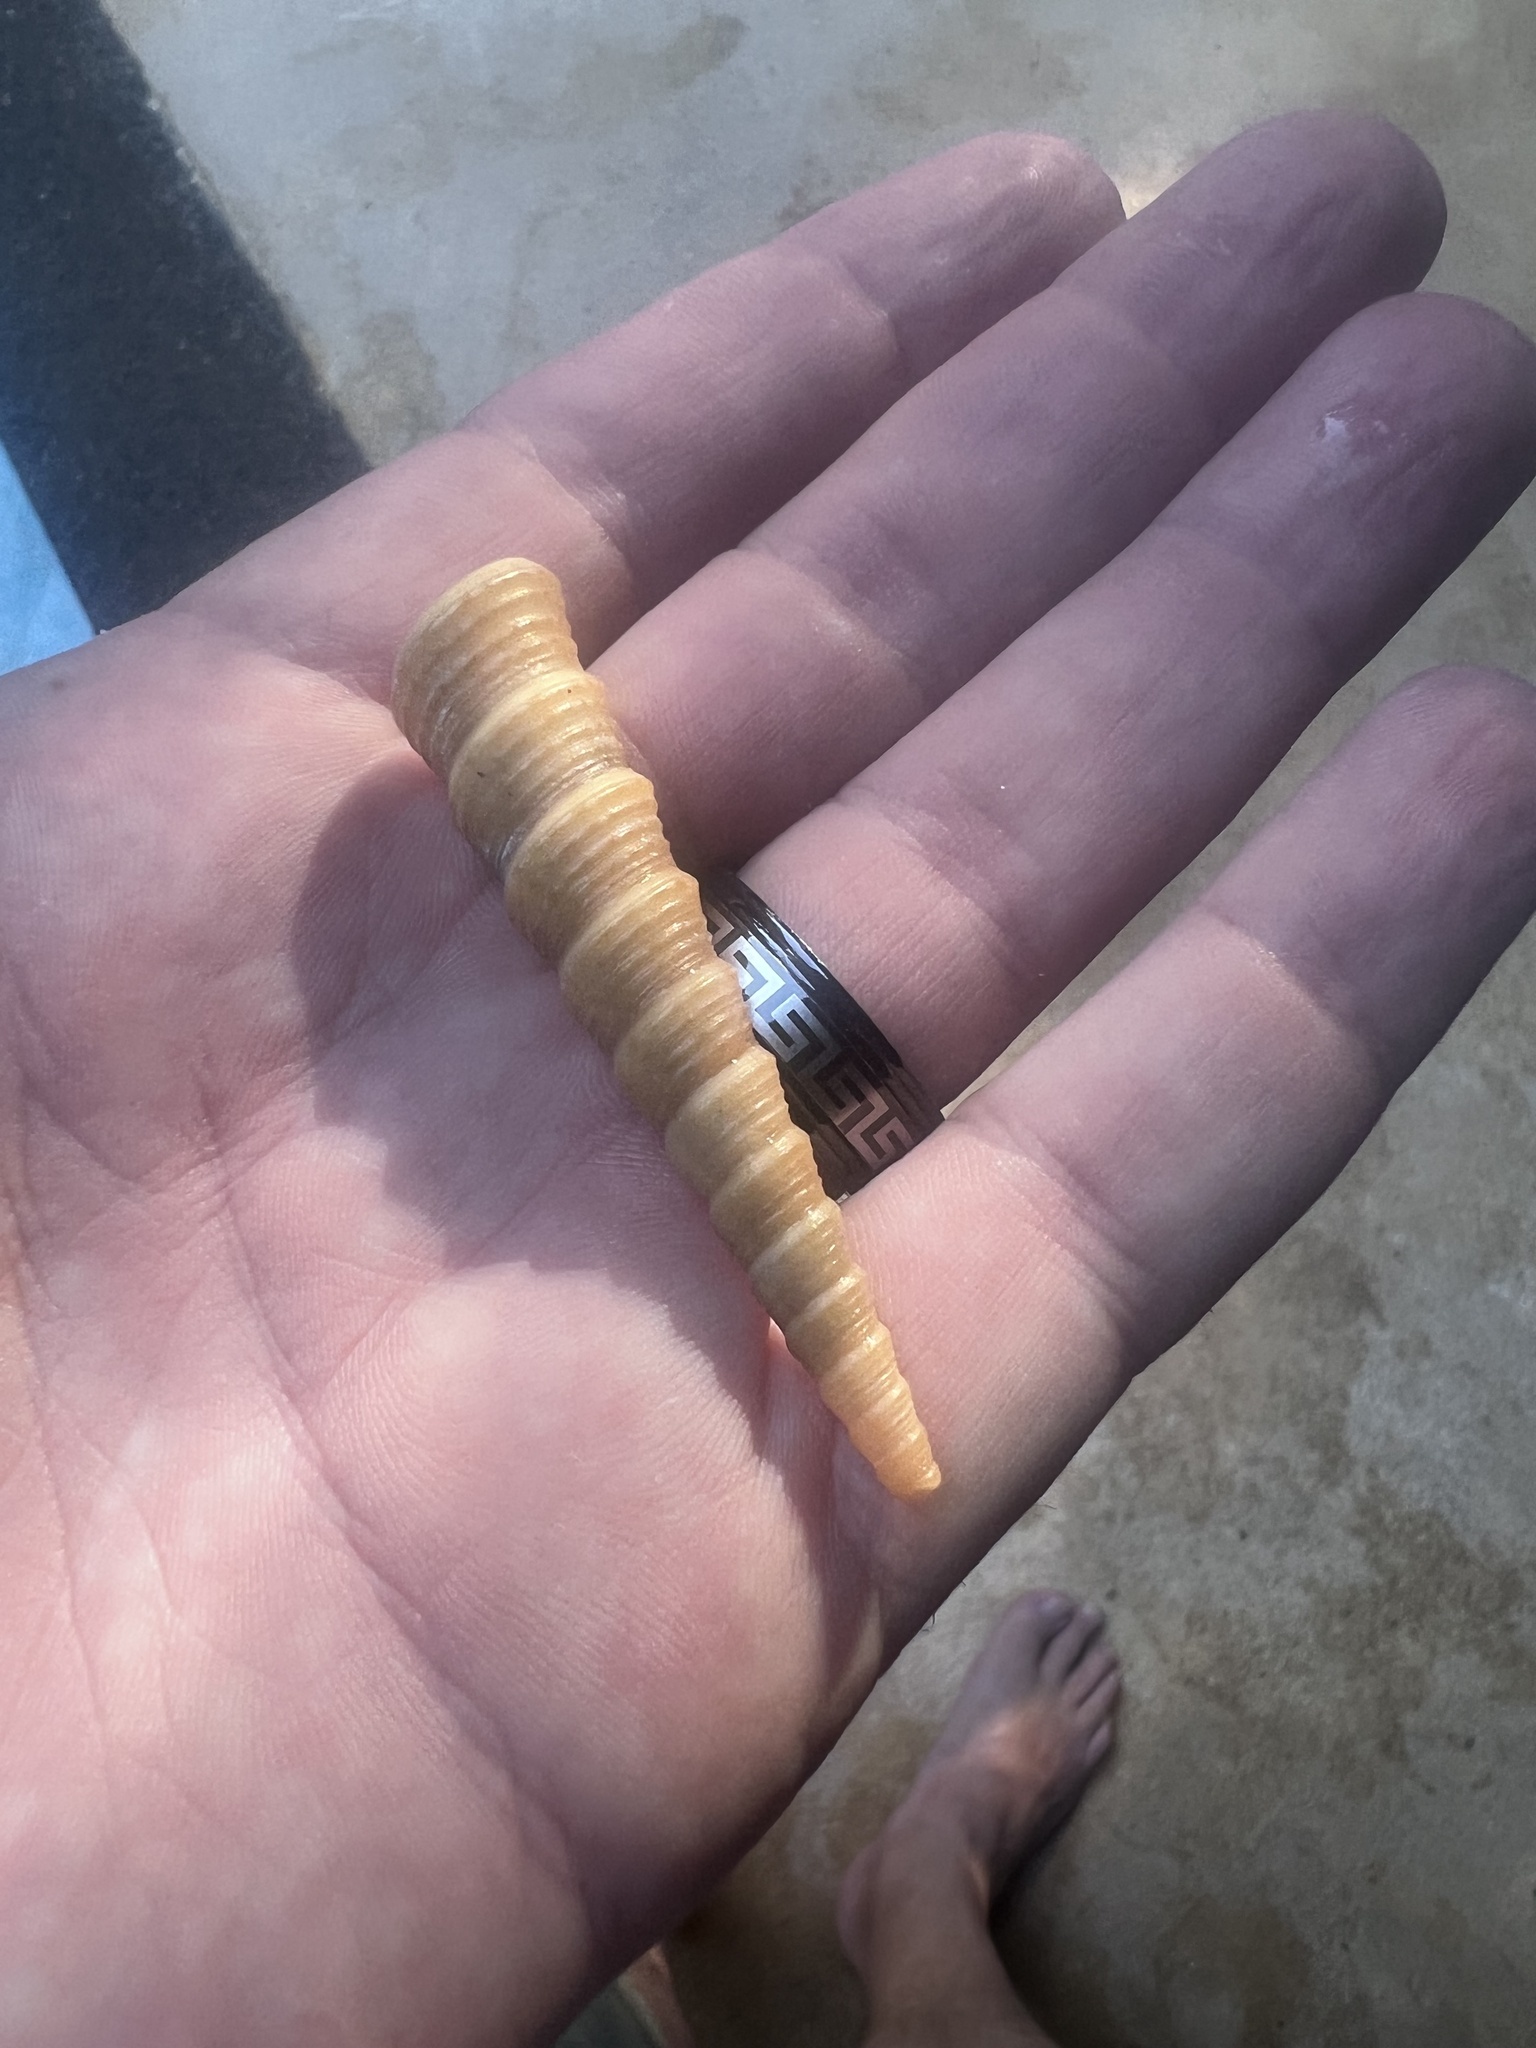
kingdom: Animalia
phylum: Mollusca
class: Gastropoda
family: Turritellidae
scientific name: Turritellidae
